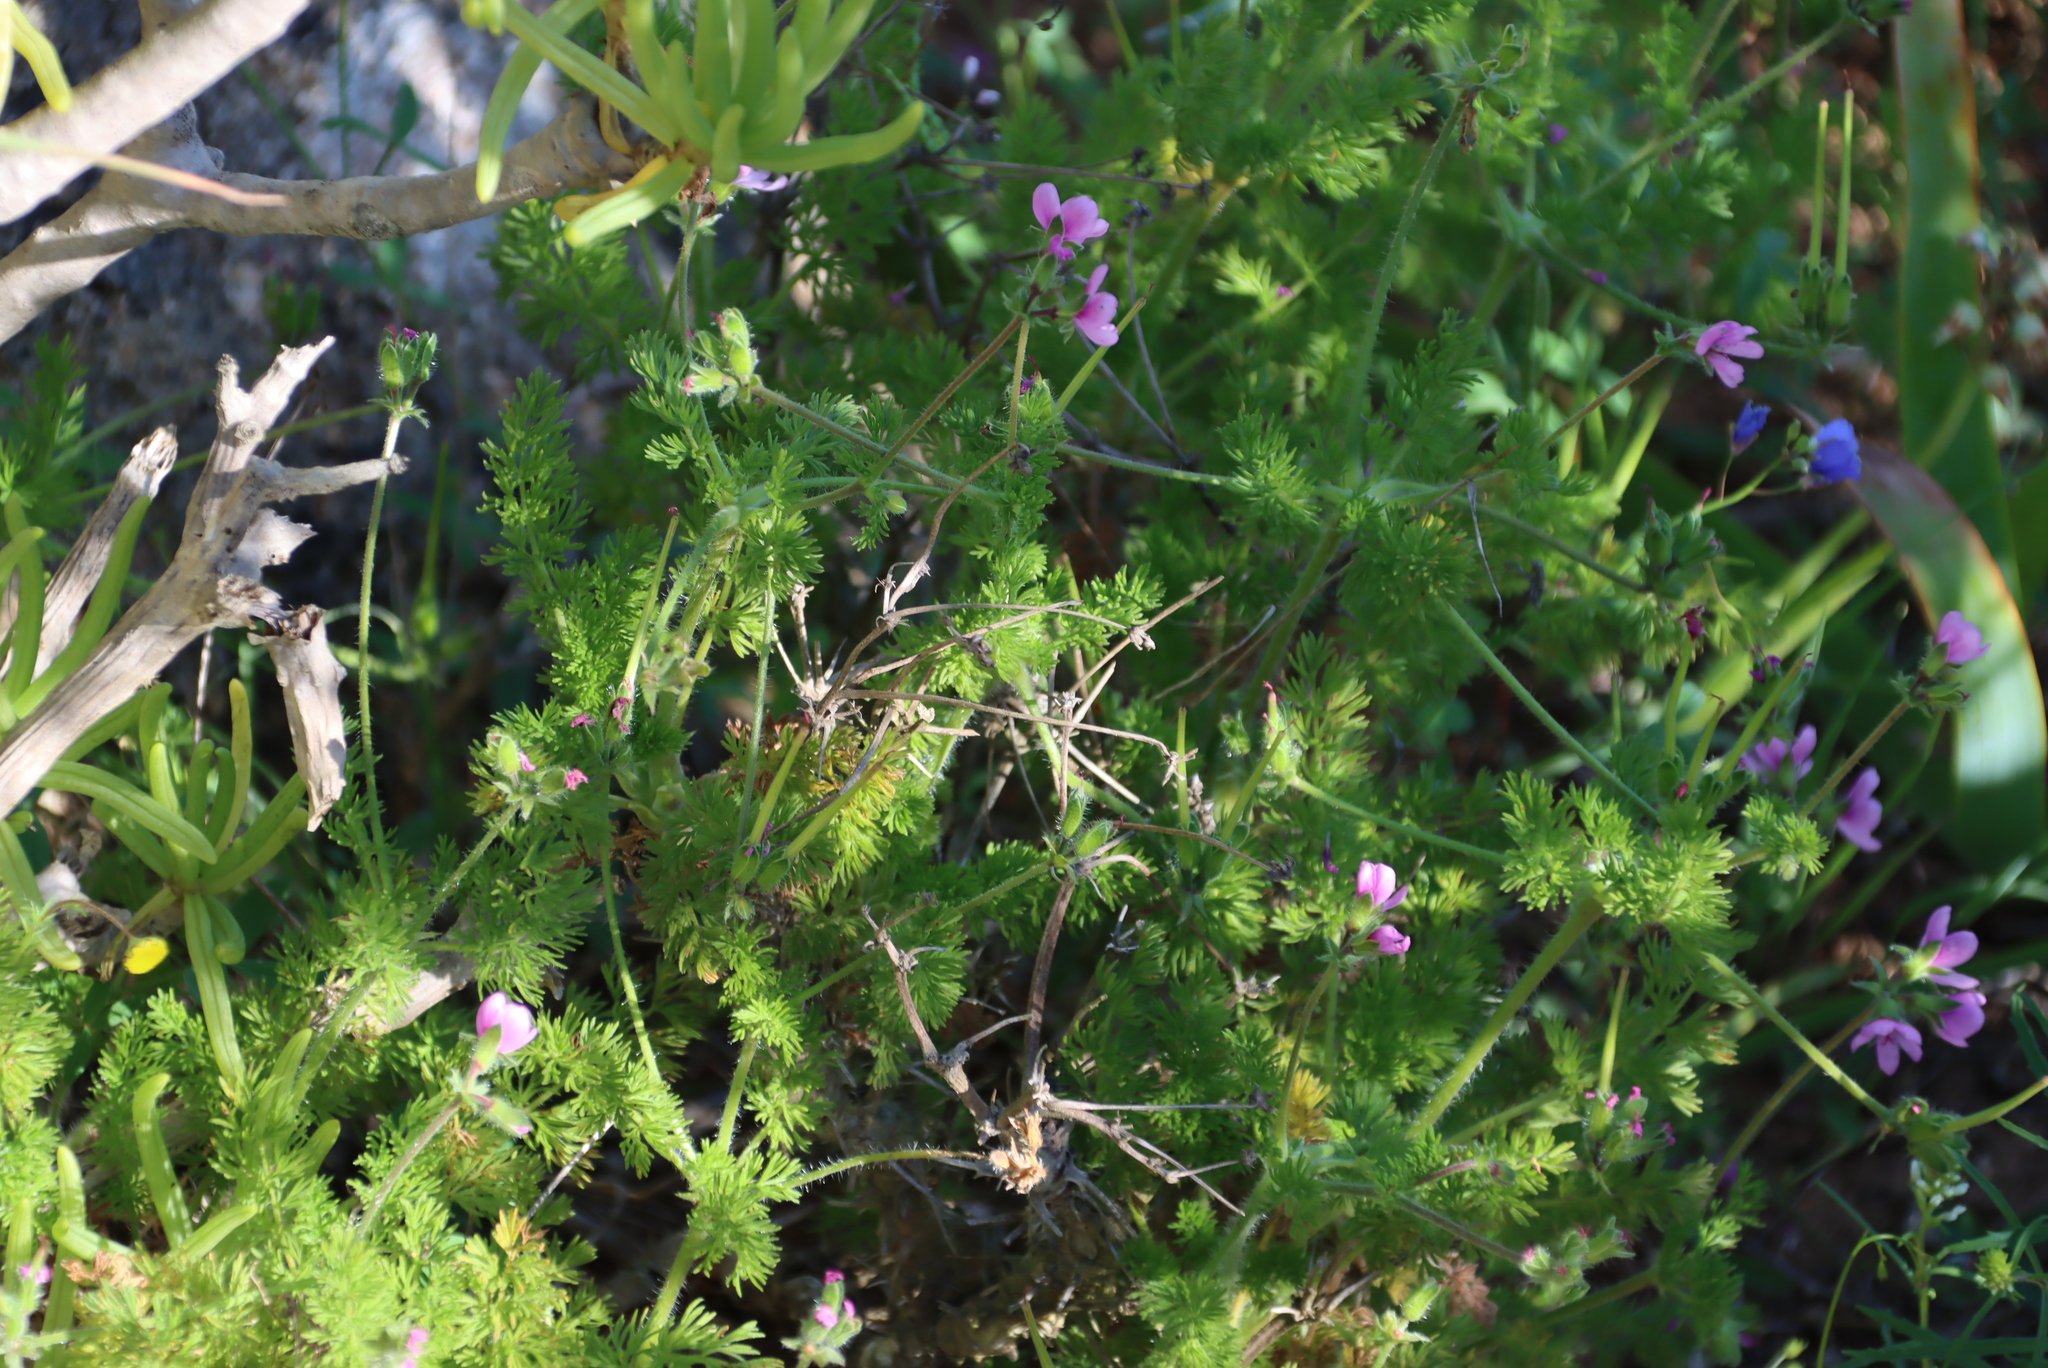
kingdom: Plantae
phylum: Tracheophyta
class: Magnoliopsida
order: Geraniales
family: Geraniaceae
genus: Pelargonium
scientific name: Pelargonium hirtum
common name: Fine-leaf pelargonium
